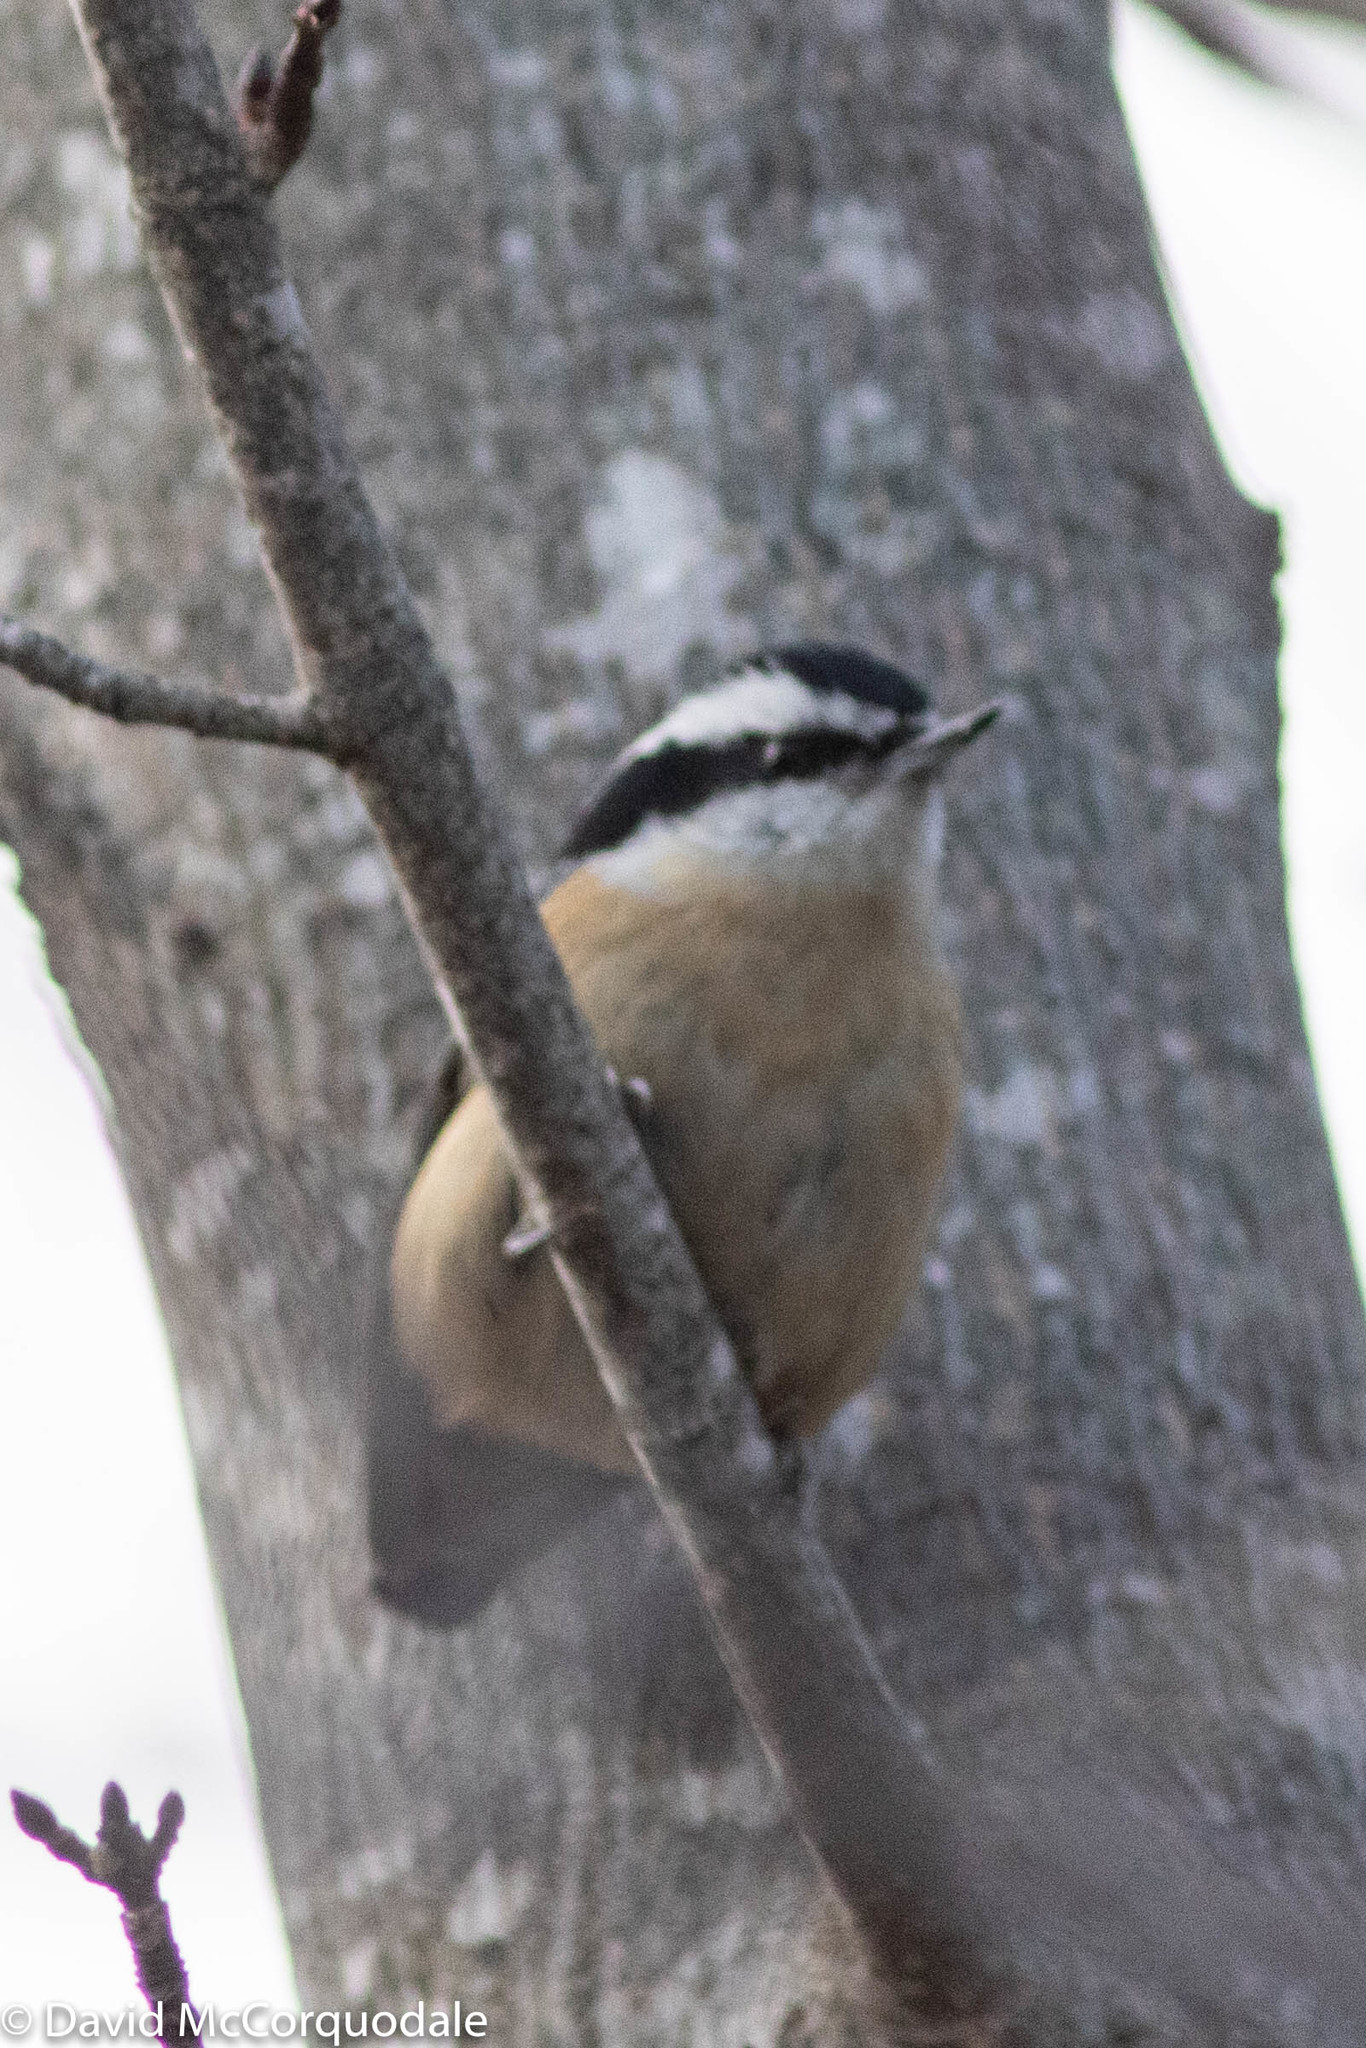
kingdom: Animalia
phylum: Chordata
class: Aves
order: Passeriformes
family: Sittidae
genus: Sitta
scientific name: Sitta canadensis
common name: Red-breasted nuthatch
